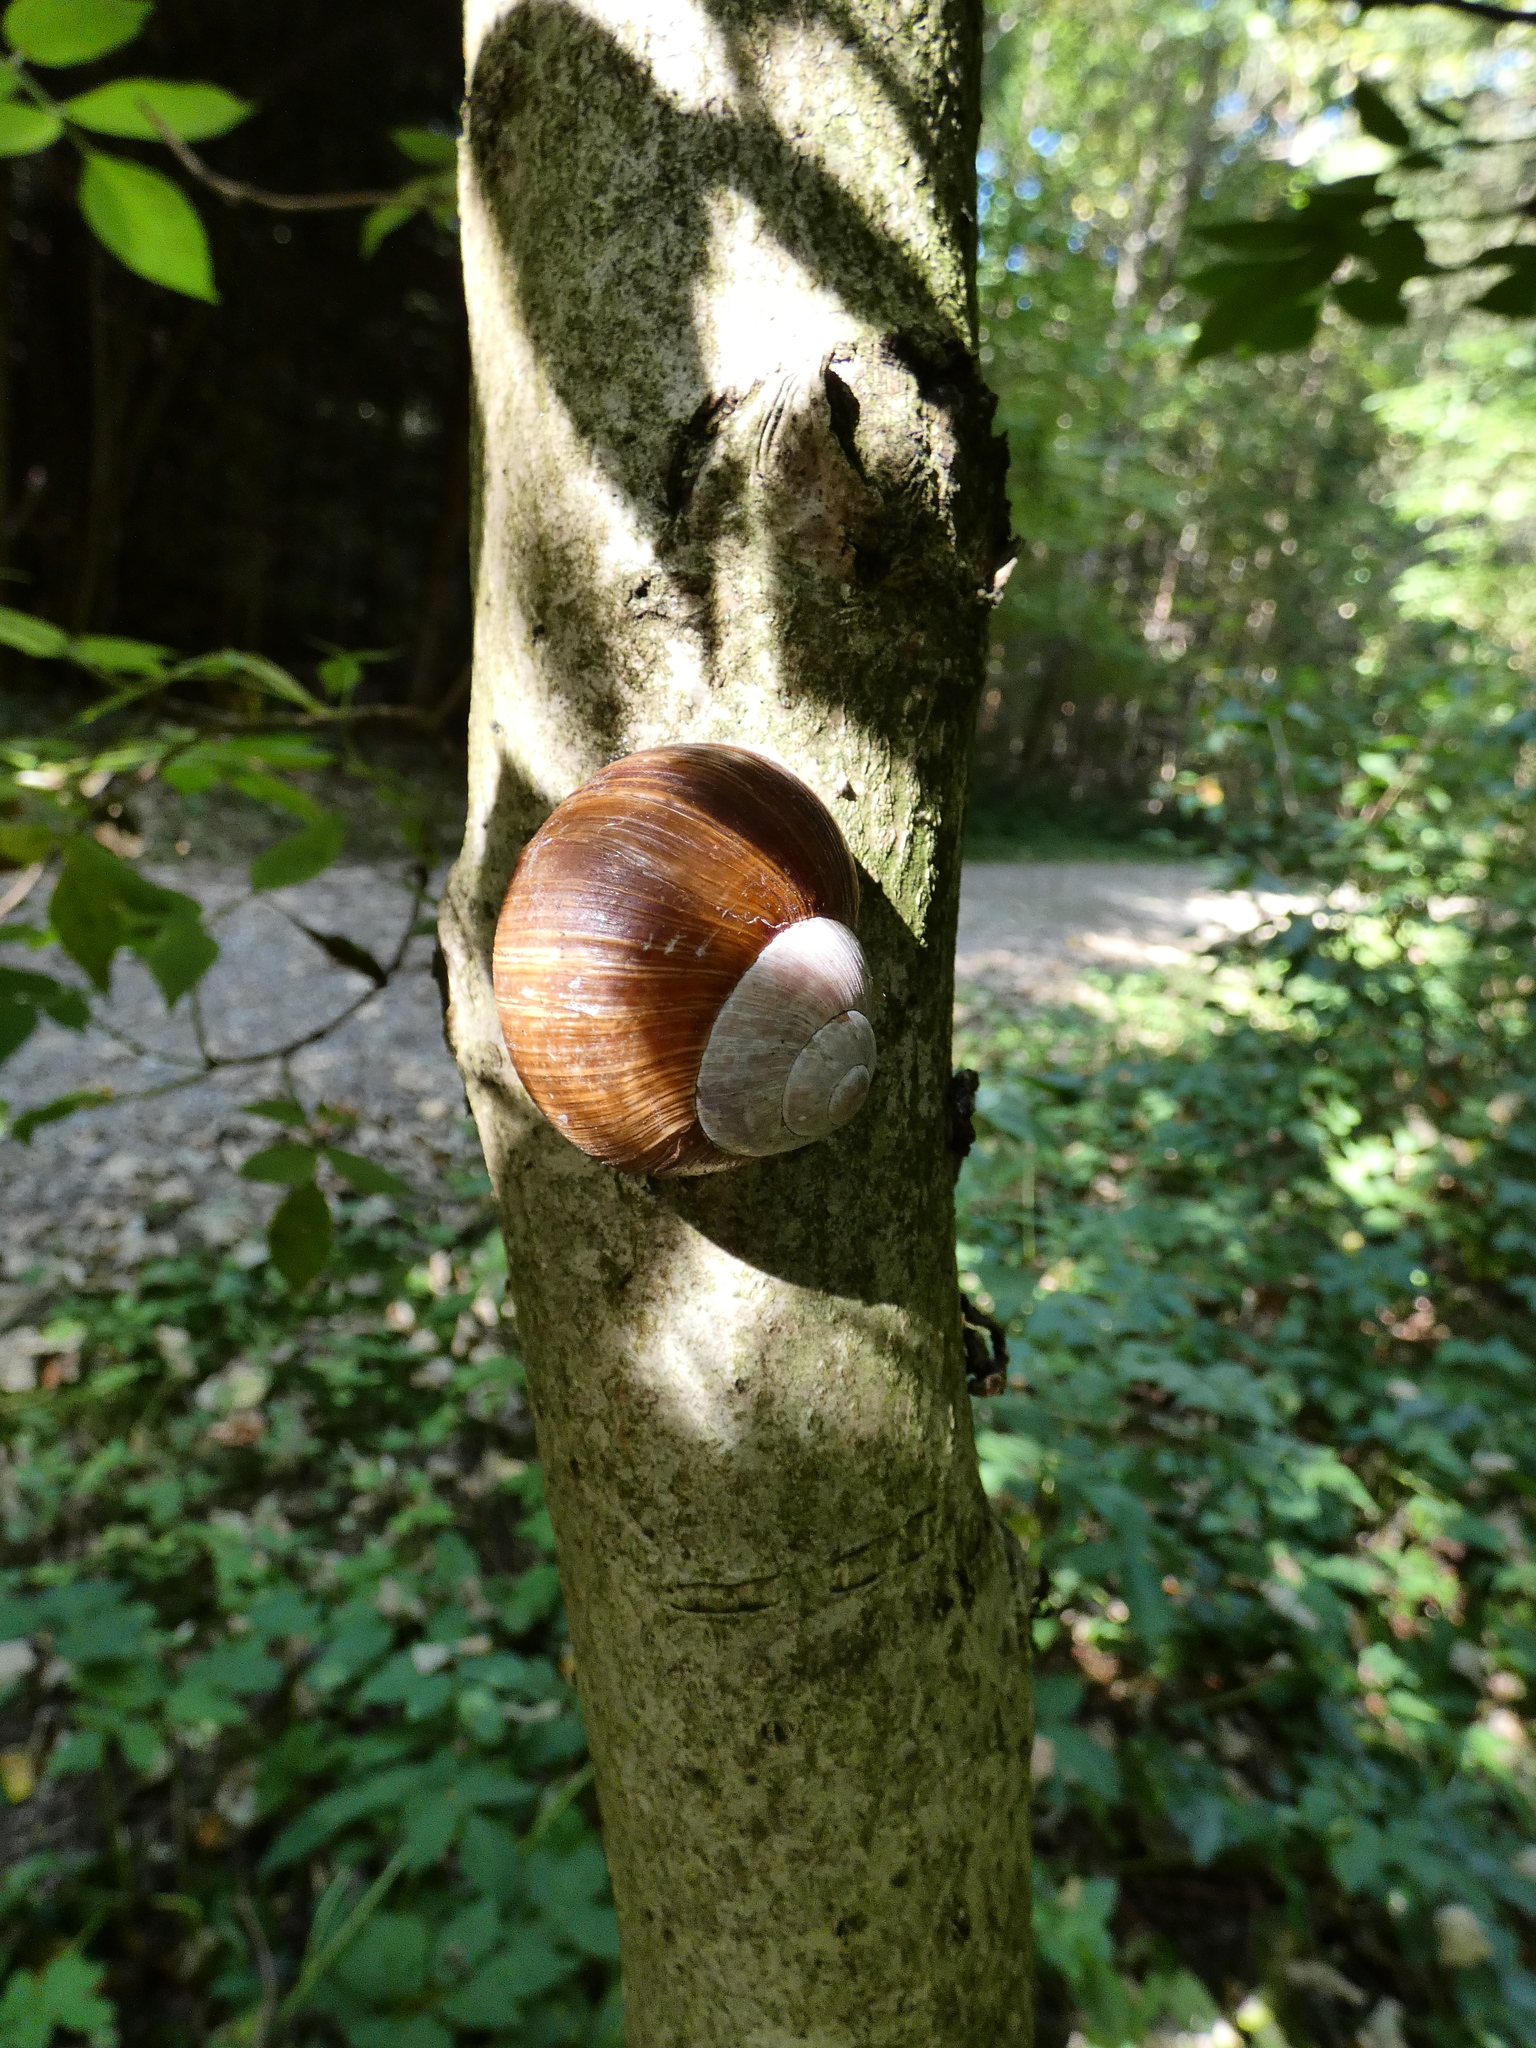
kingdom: Animalia
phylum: Mollusca
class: Gastropoda
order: Stylommatophora
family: Helicidae
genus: Helix
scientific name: Helix pomatia
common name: Roman snail
